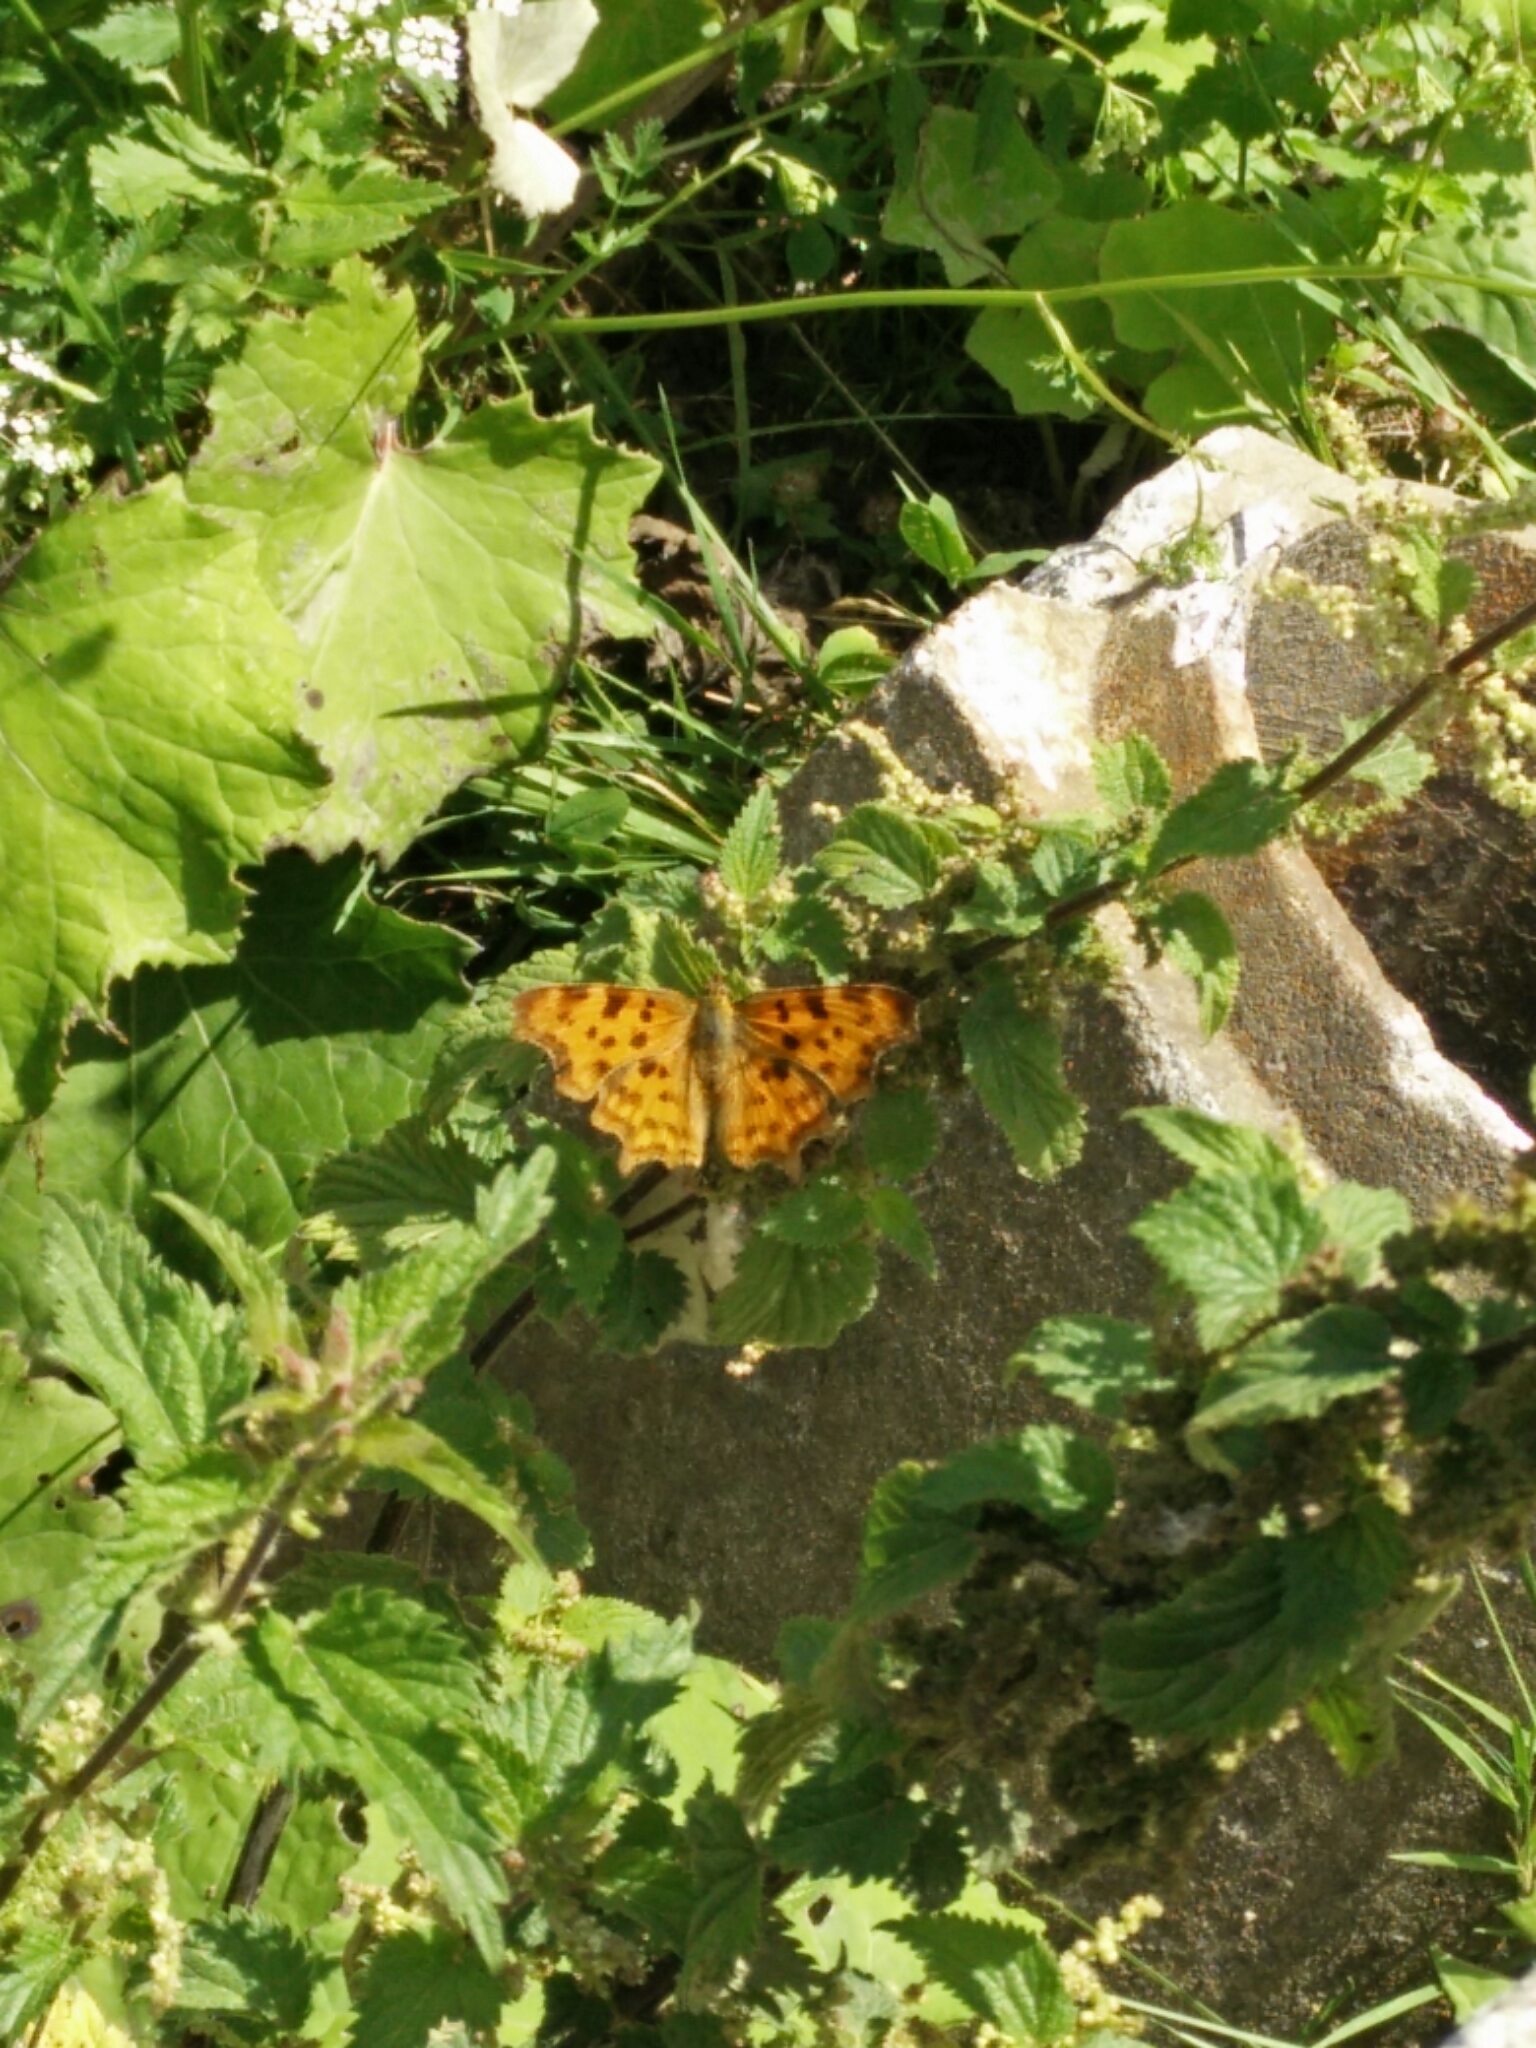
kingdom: Animalia
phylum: Arthropoda
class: Insecta
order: Lepidoptera
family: Nymphalidae
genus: Polygonia
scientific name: Polygonia c-album
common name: Comma
